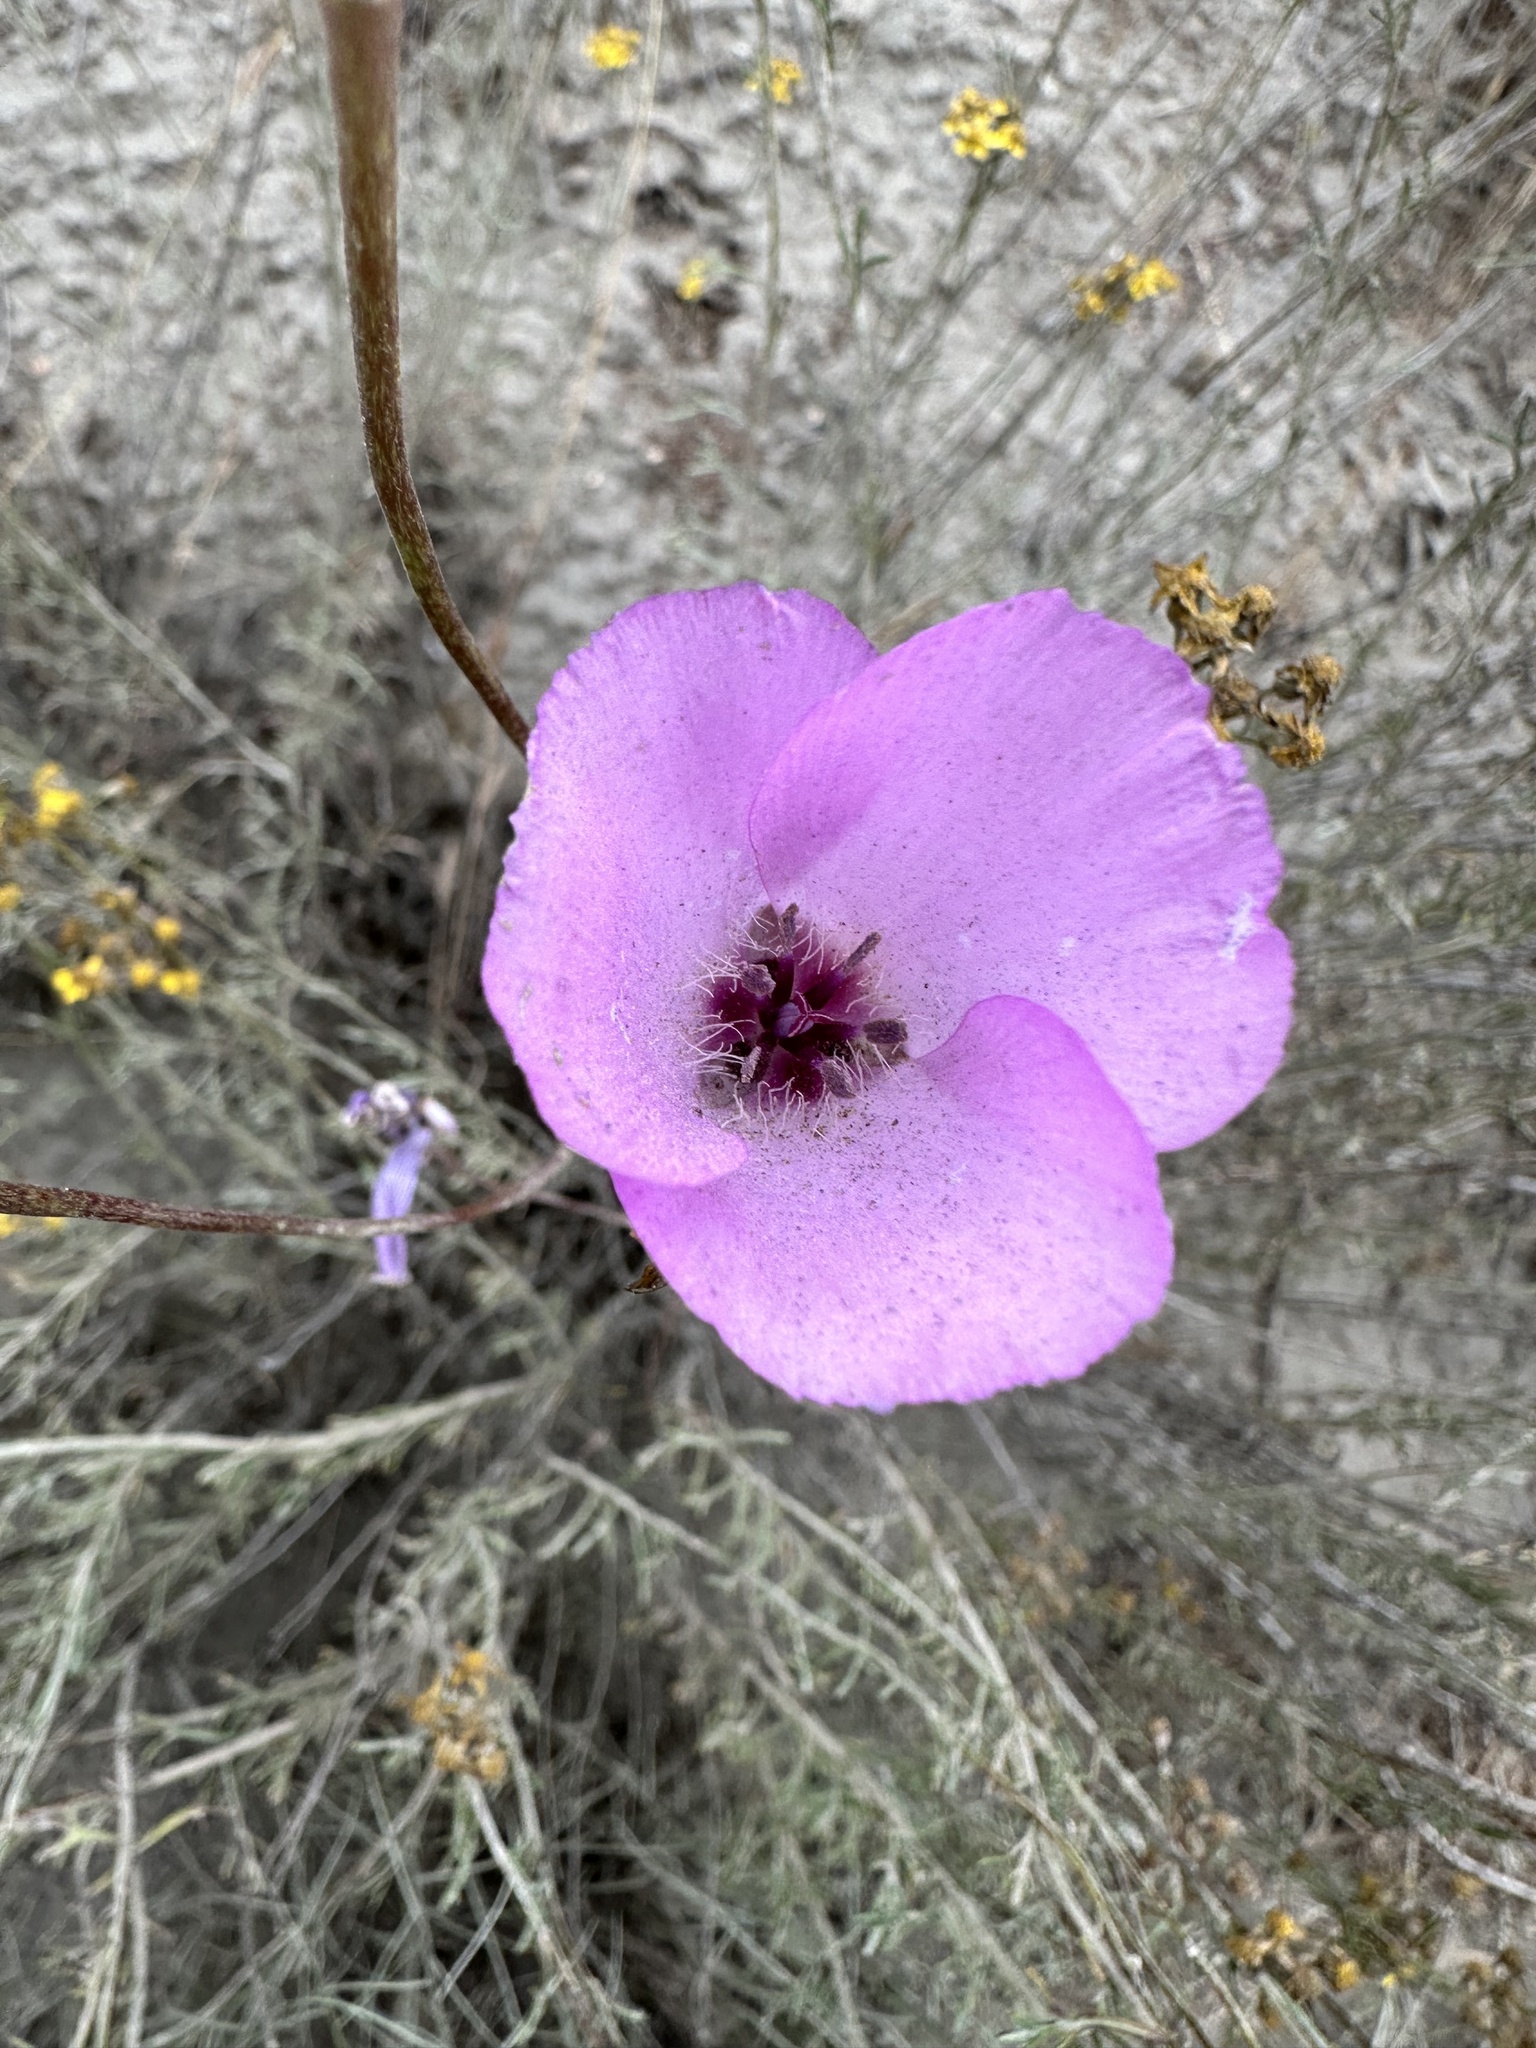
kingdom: Plantae
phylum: Tracheophyta
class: Liliopsida
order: Liliales
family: Liliaceae
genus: Calochortus
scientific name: Calochortus splendens
